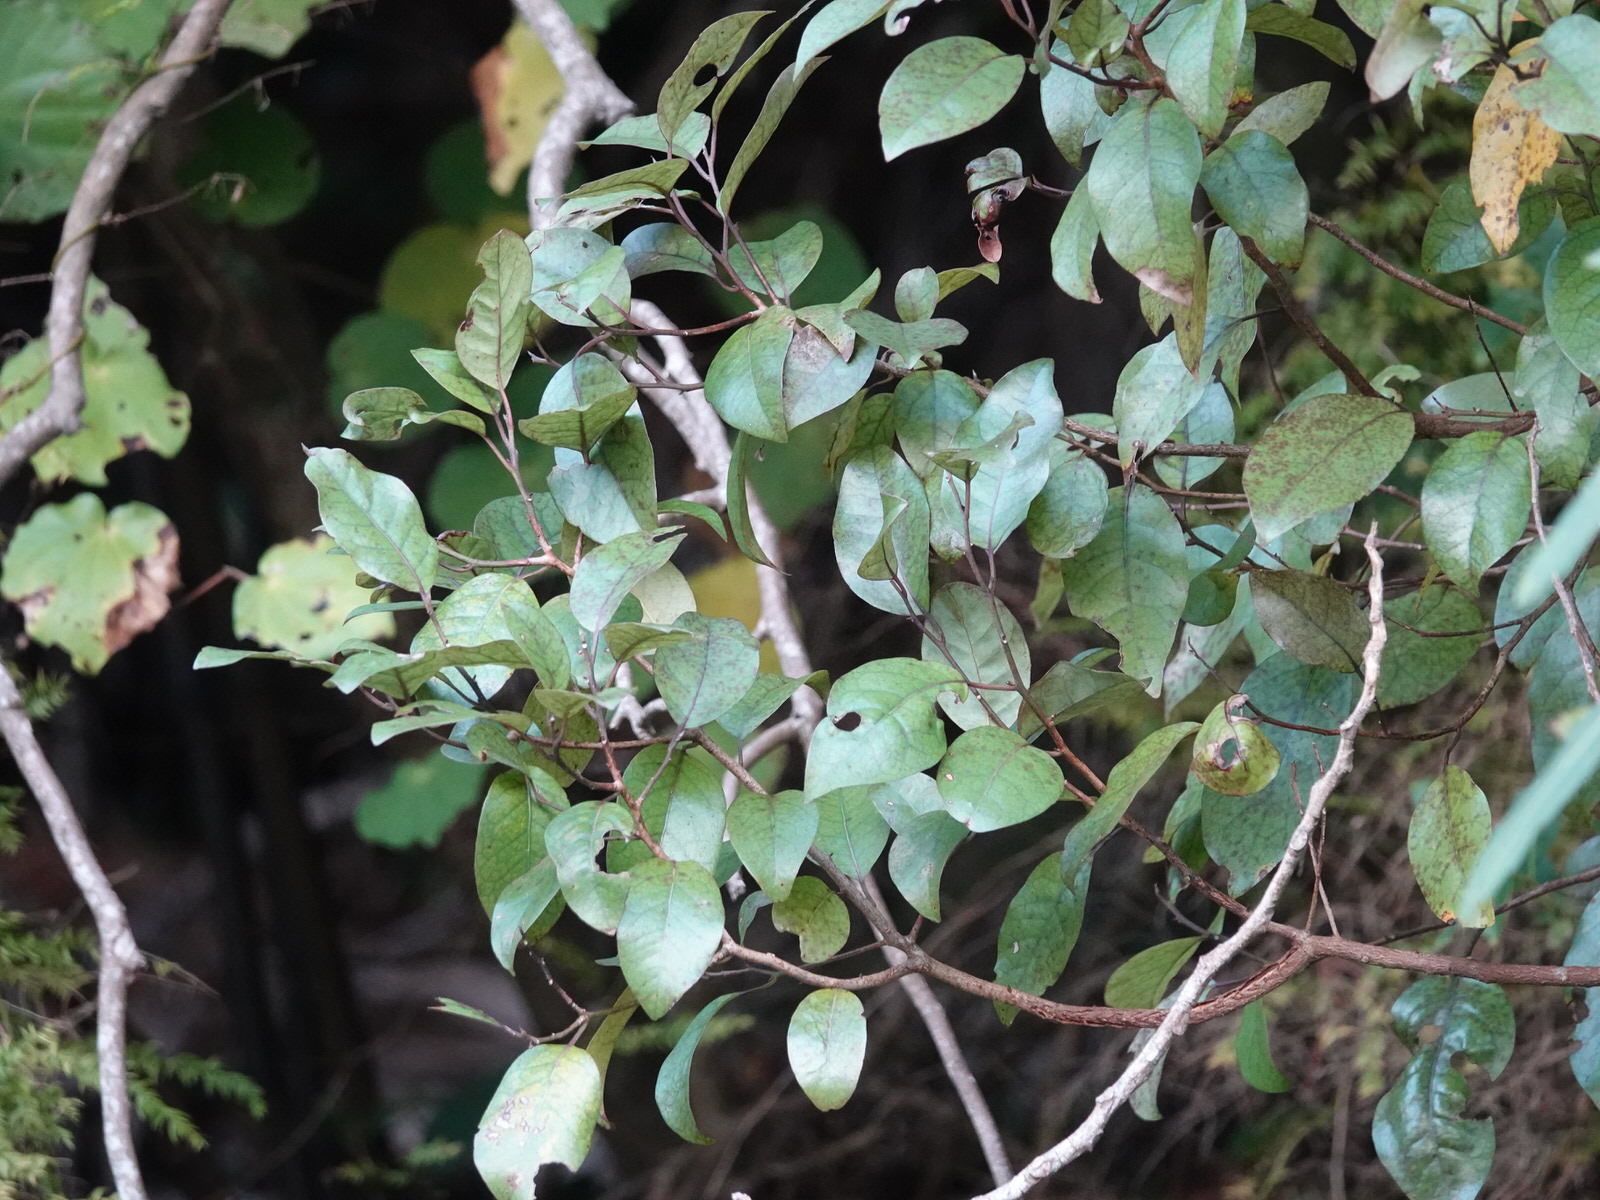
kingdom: Plantae
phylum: Tracheophyta
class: Magnoliopsida
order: Laurales
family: Lauraceae
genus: Litsea
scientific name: Litsea calicaris
